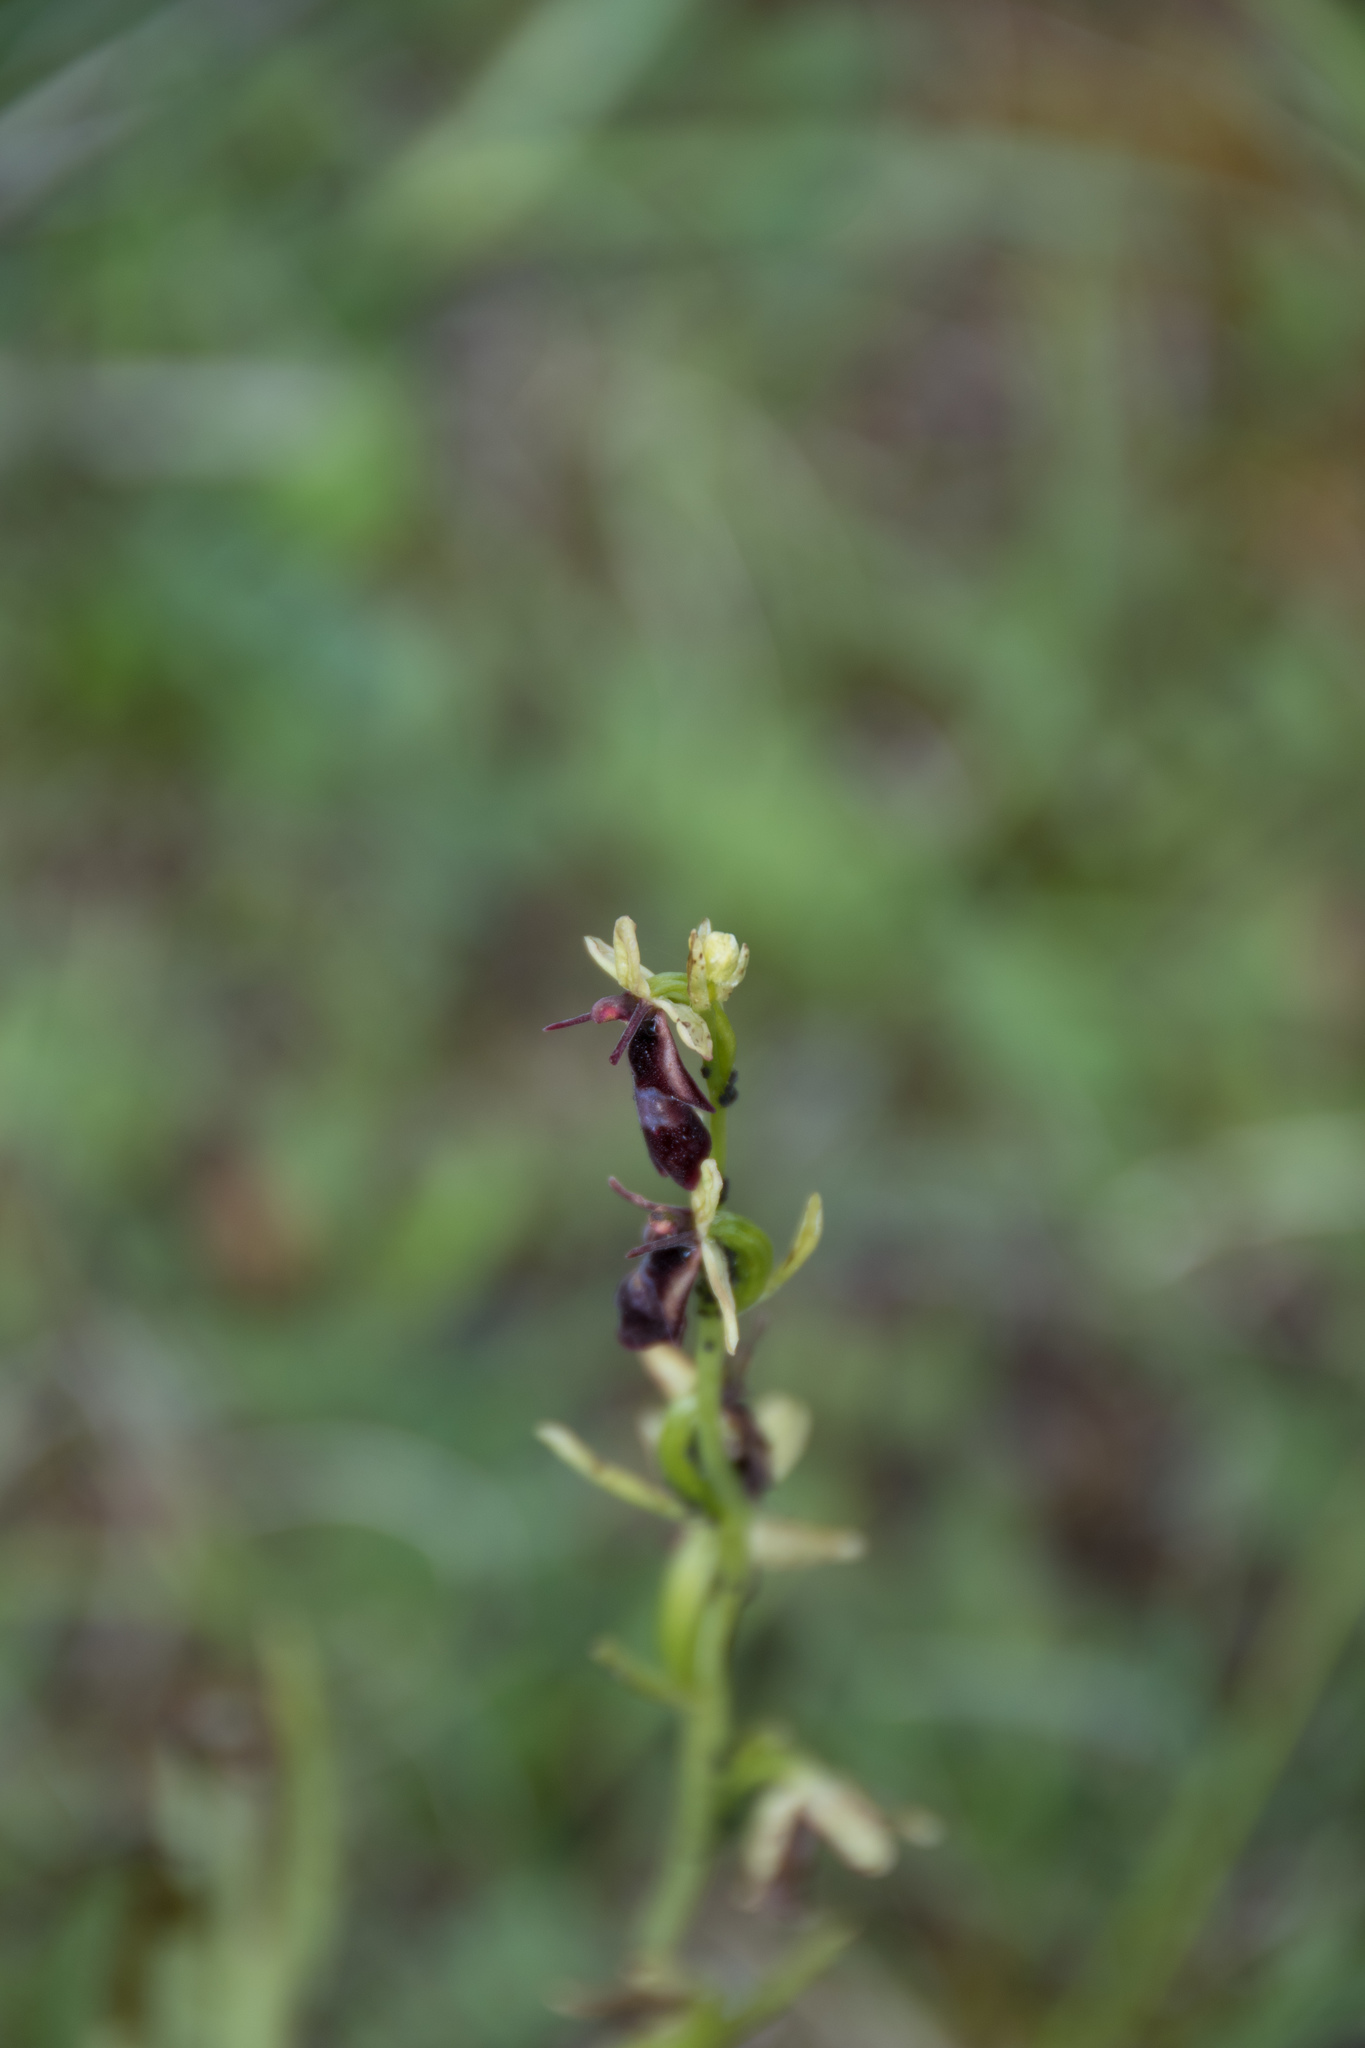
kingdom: Plantae
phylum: Tracheophyta
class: Liliopsida
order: Asparagales
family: Orchidaceae
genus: Ophrys
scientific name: Ophrys insectifera
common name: Fly orchid
